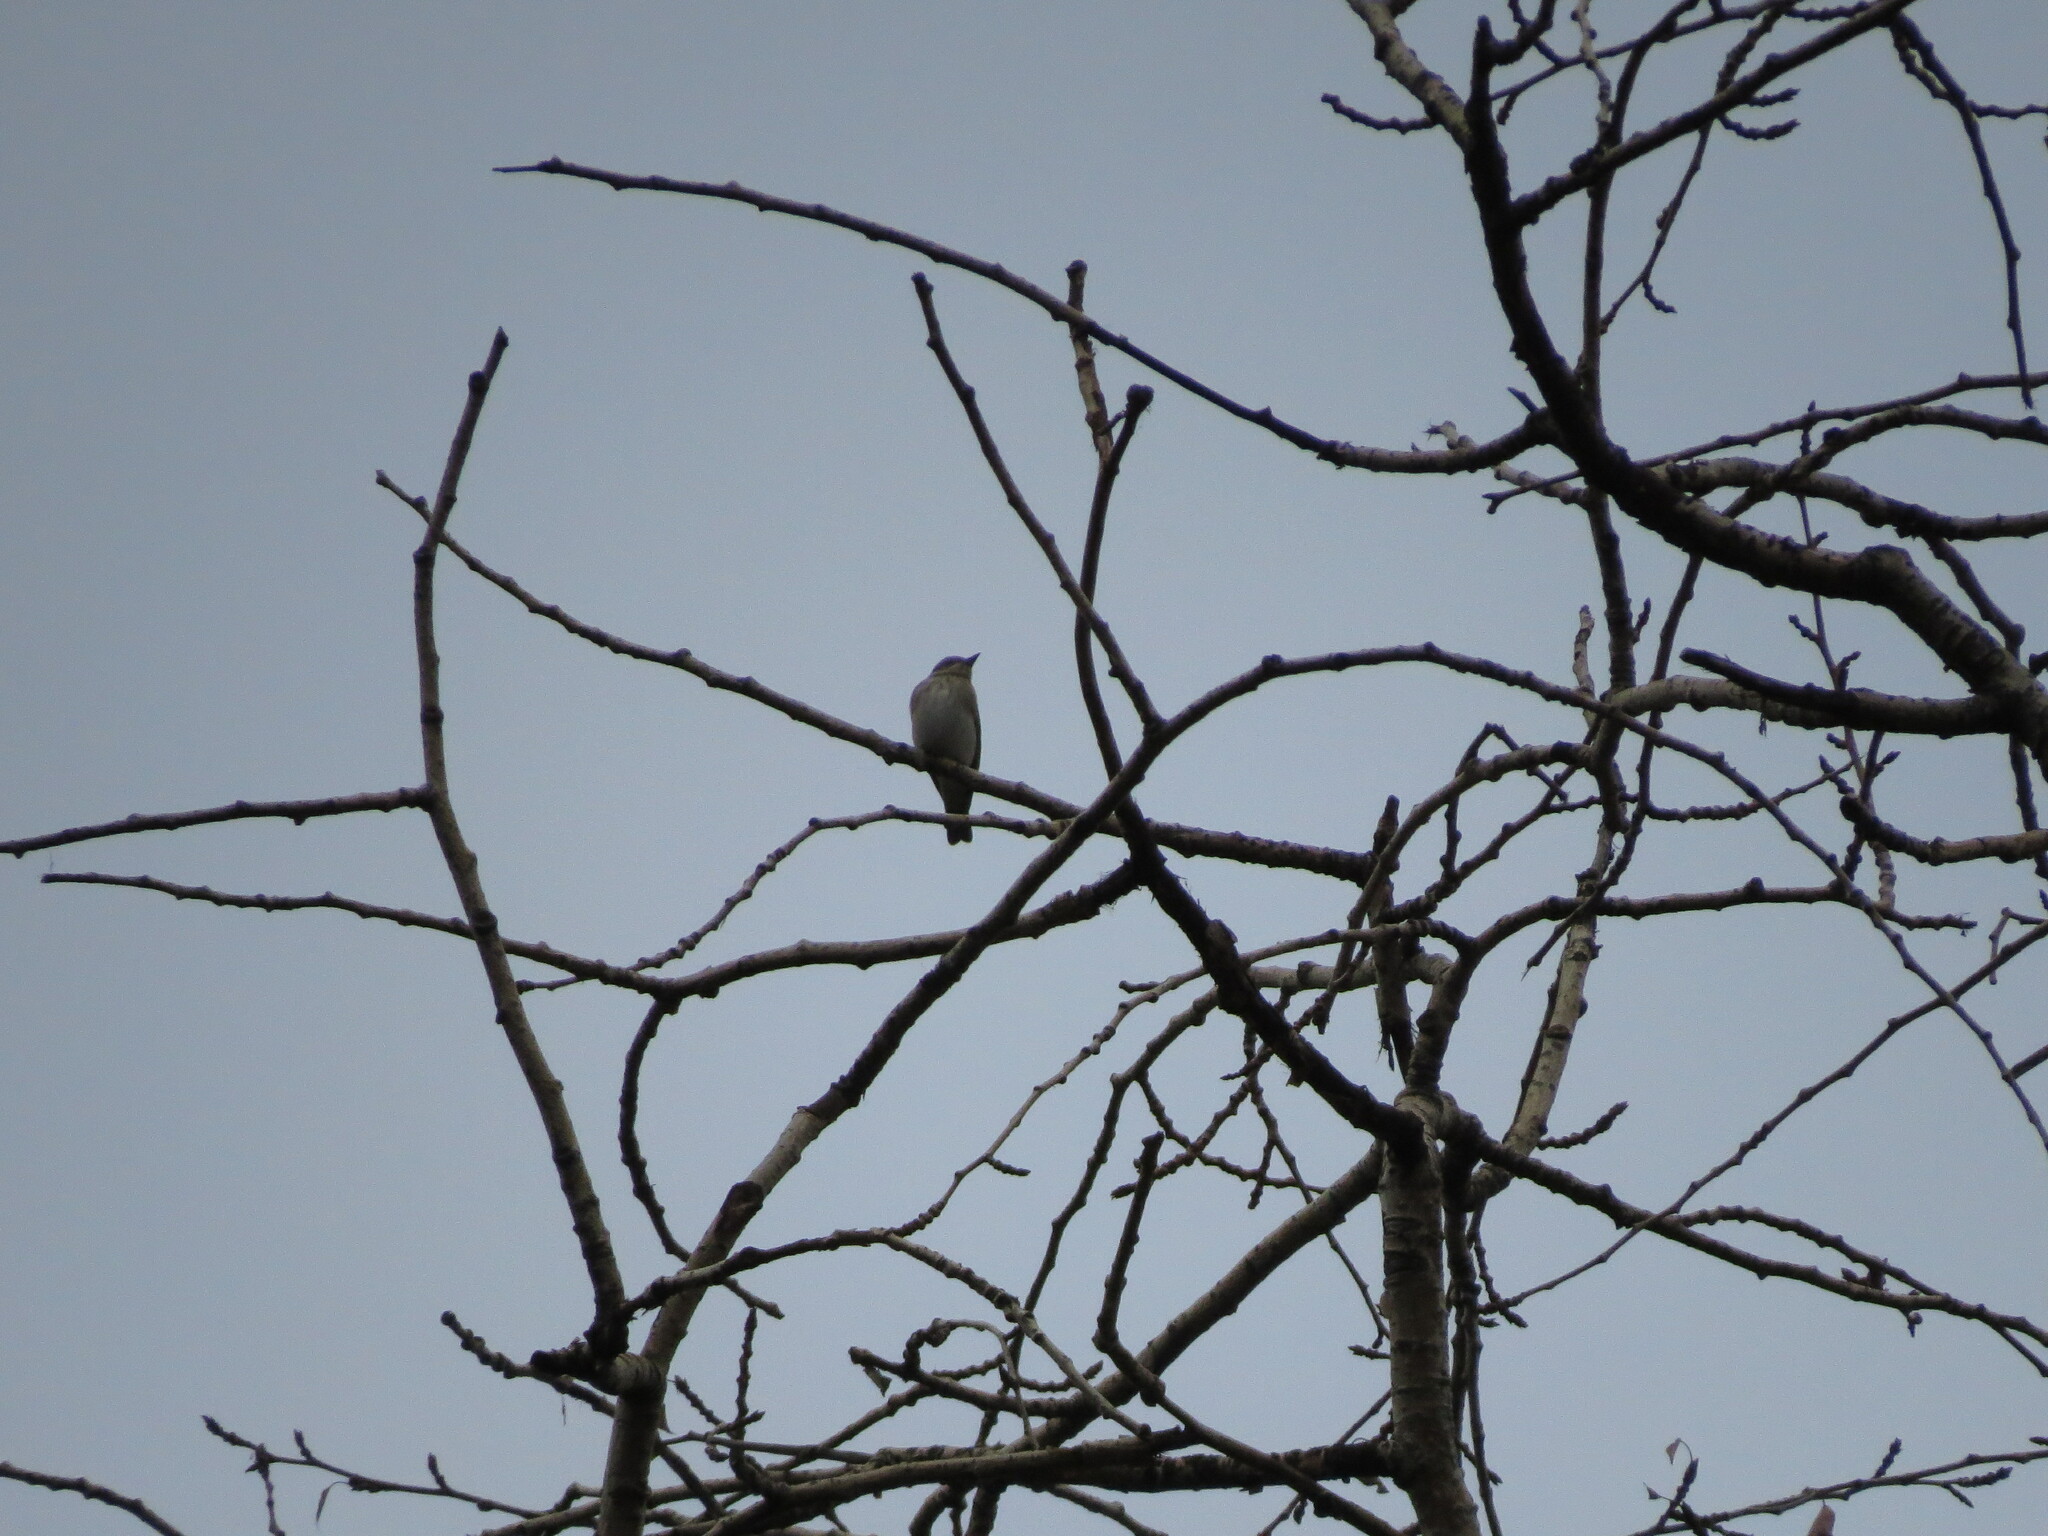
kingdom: Animalia
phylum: Chordata
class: Aves
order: Passeriformes
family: Muscicapidae
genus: Muscicapa
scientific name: Muscicapa striata
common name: Spotted flycatcher
